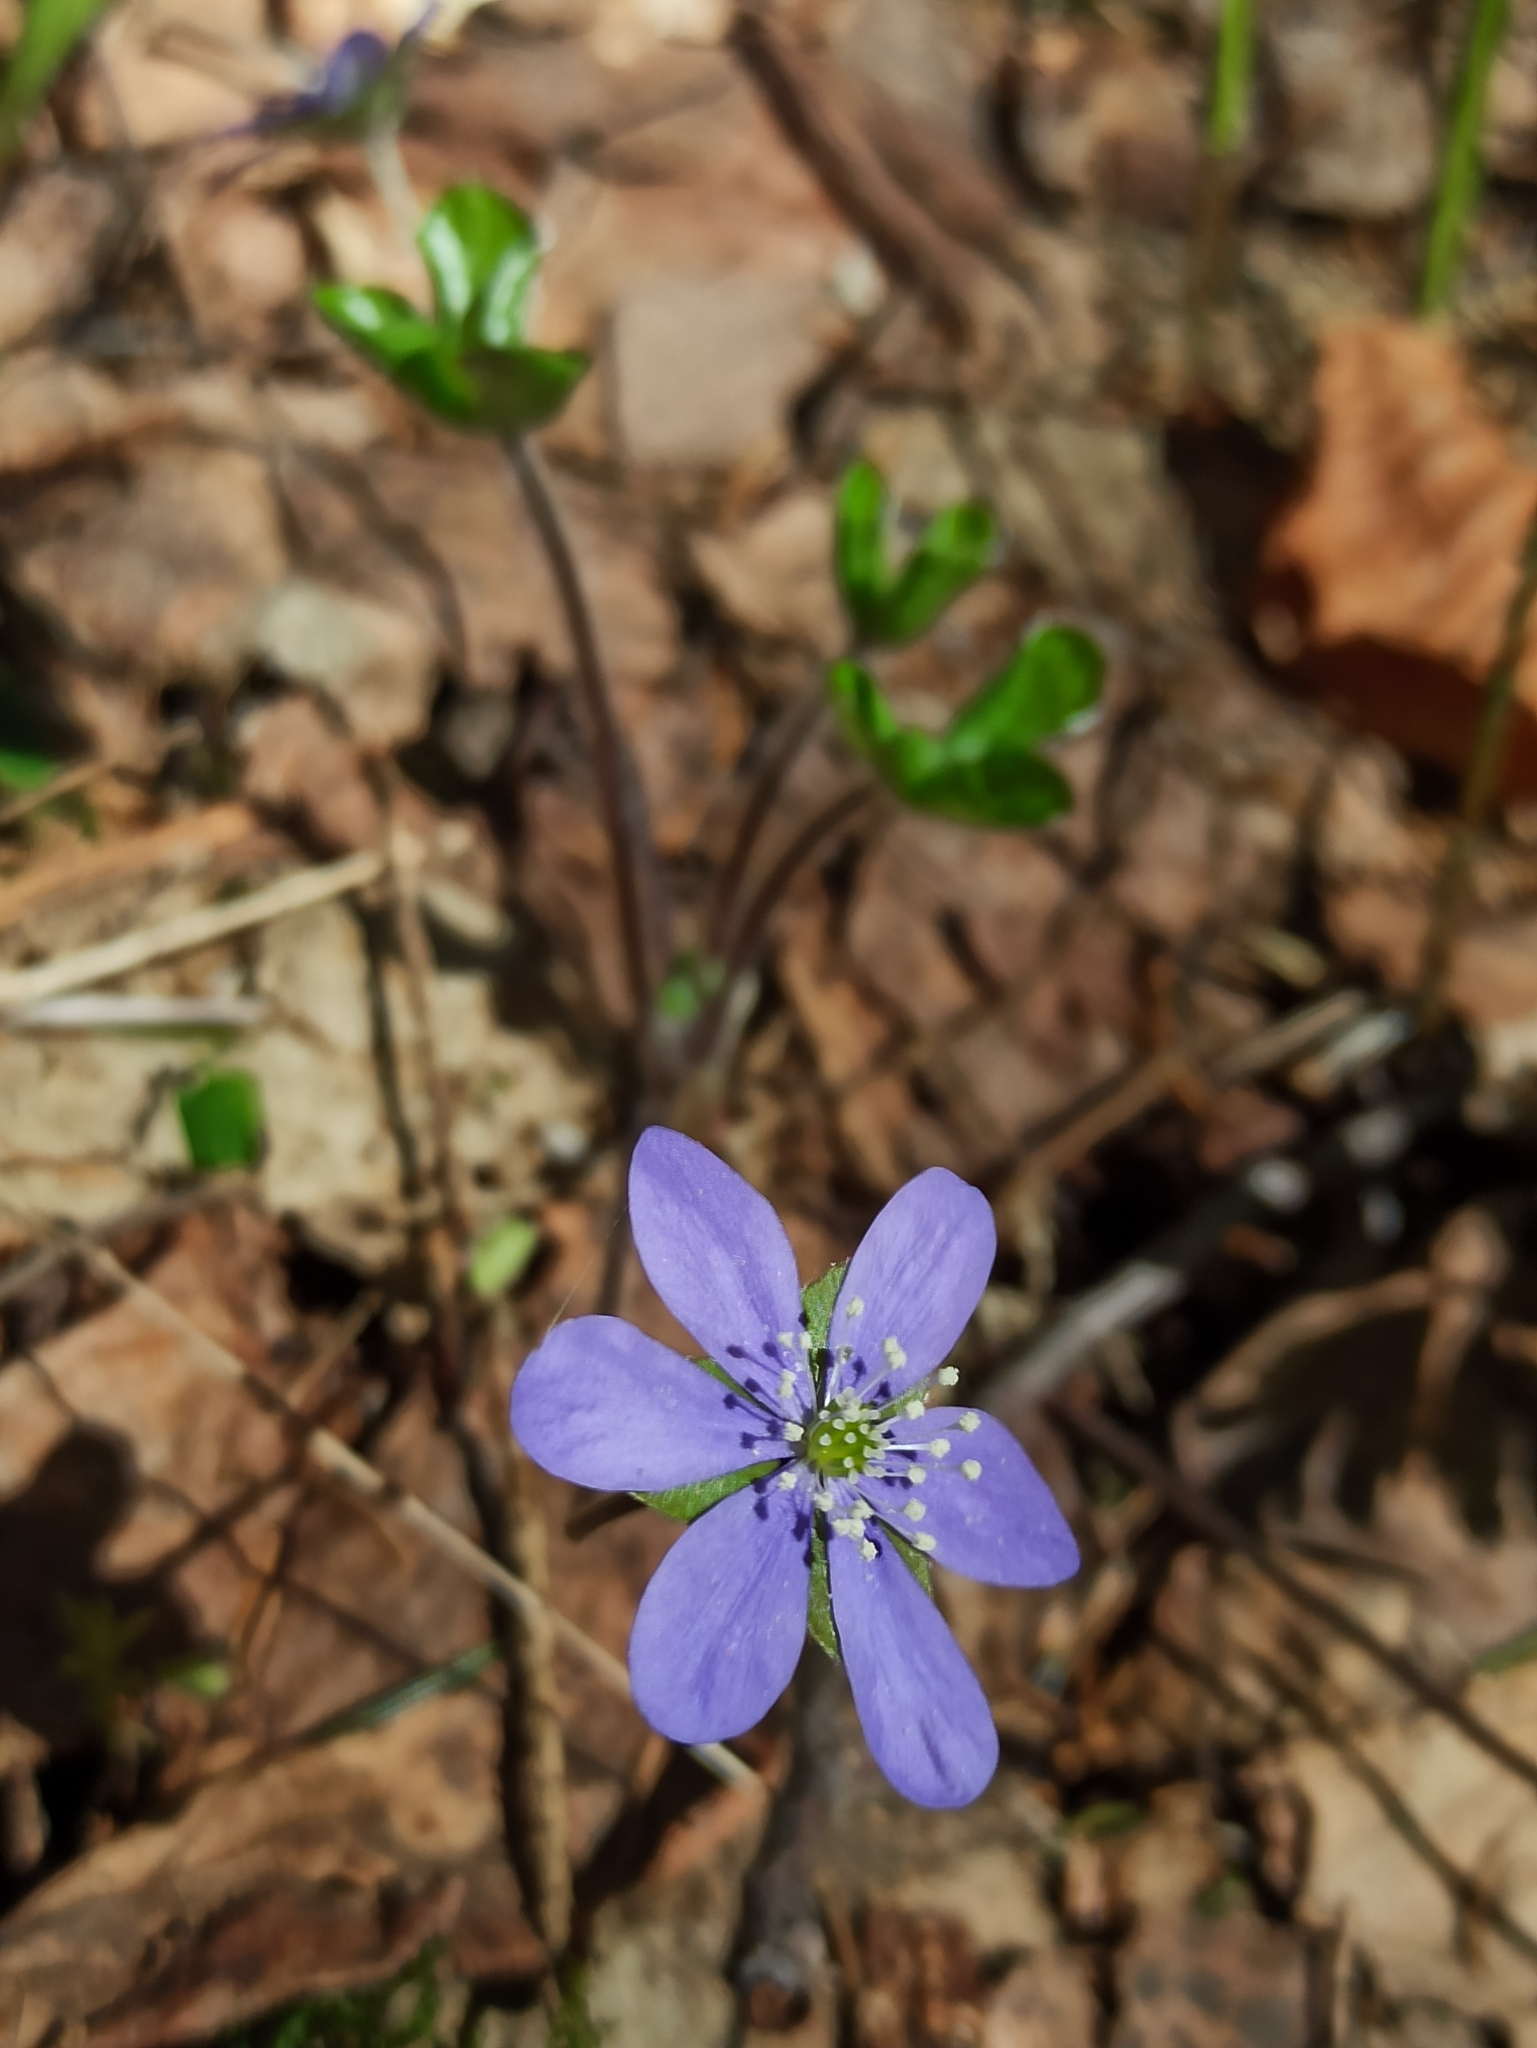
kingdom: Plantae
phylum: Tracheophyta
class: Magnoliopsida
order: Ranunculales
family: Ranunculaceae
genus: Hepatica
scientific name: Hepatica nobilis
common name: Liverleaf
